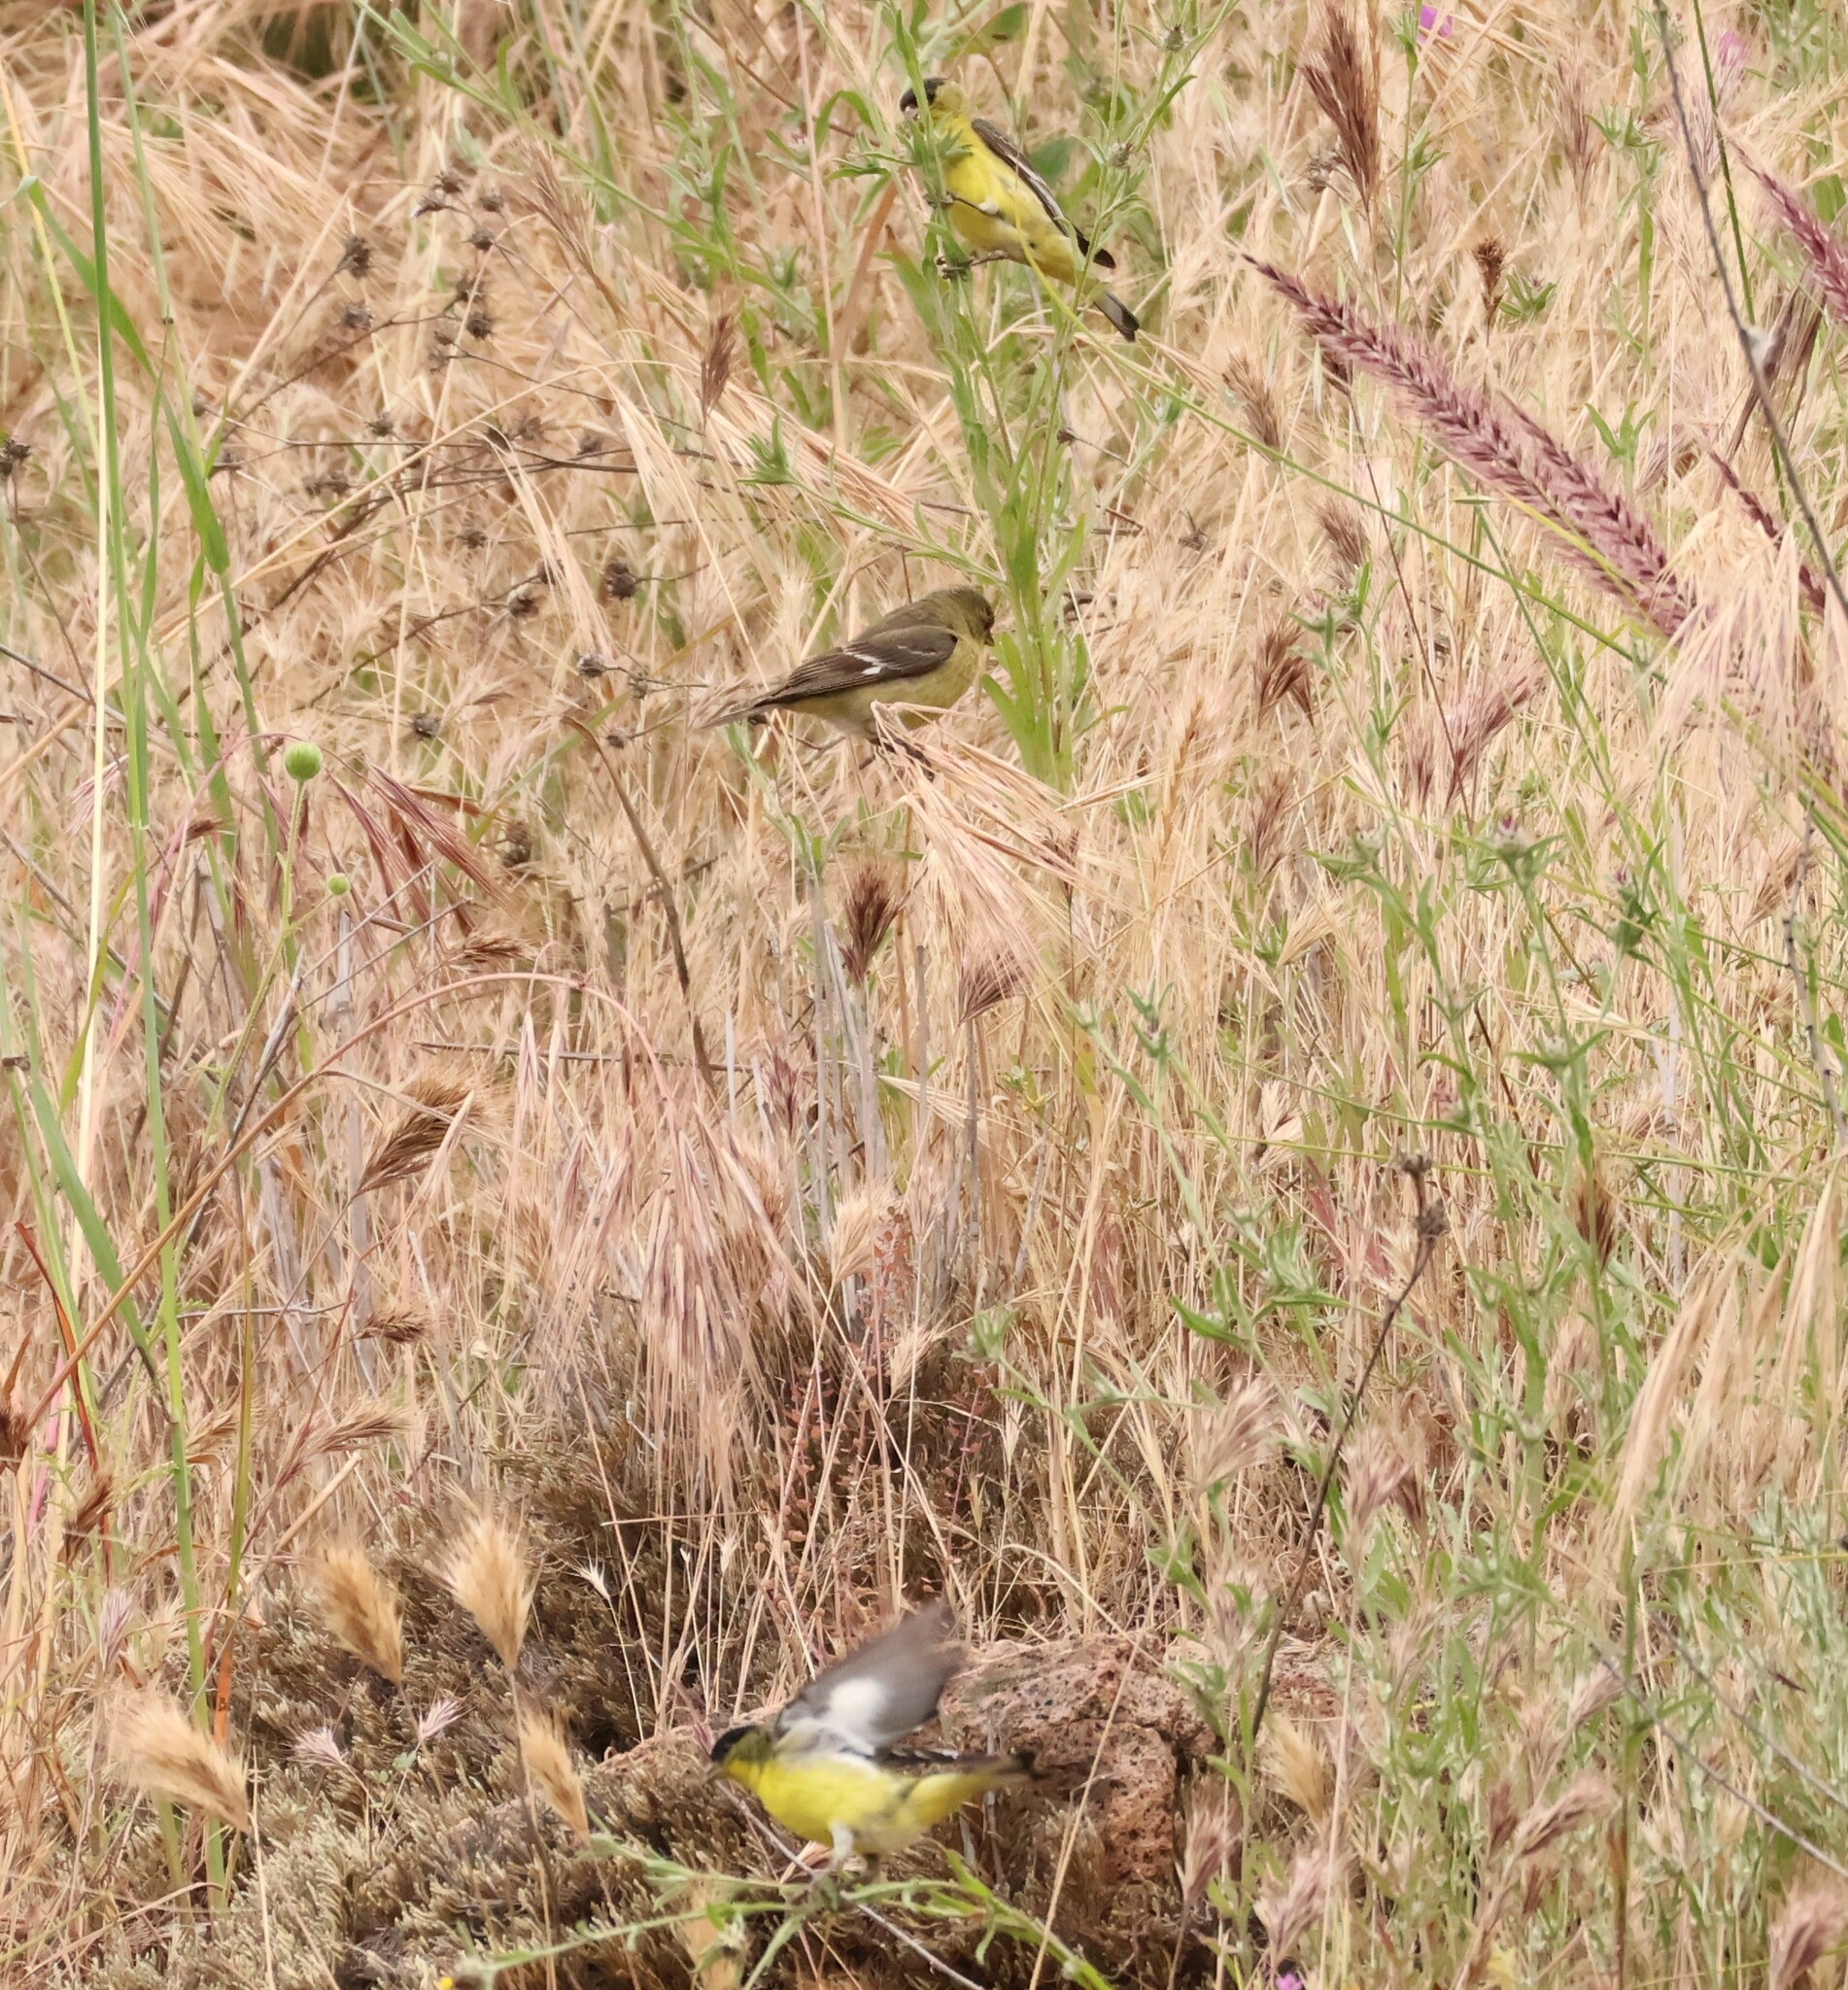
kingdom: Animalia
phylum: Chordata
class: Aves
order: Passeriformes
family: Fringillidae
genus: Spinus
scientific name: Spinus psaltria
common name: Lesser goldfinch
